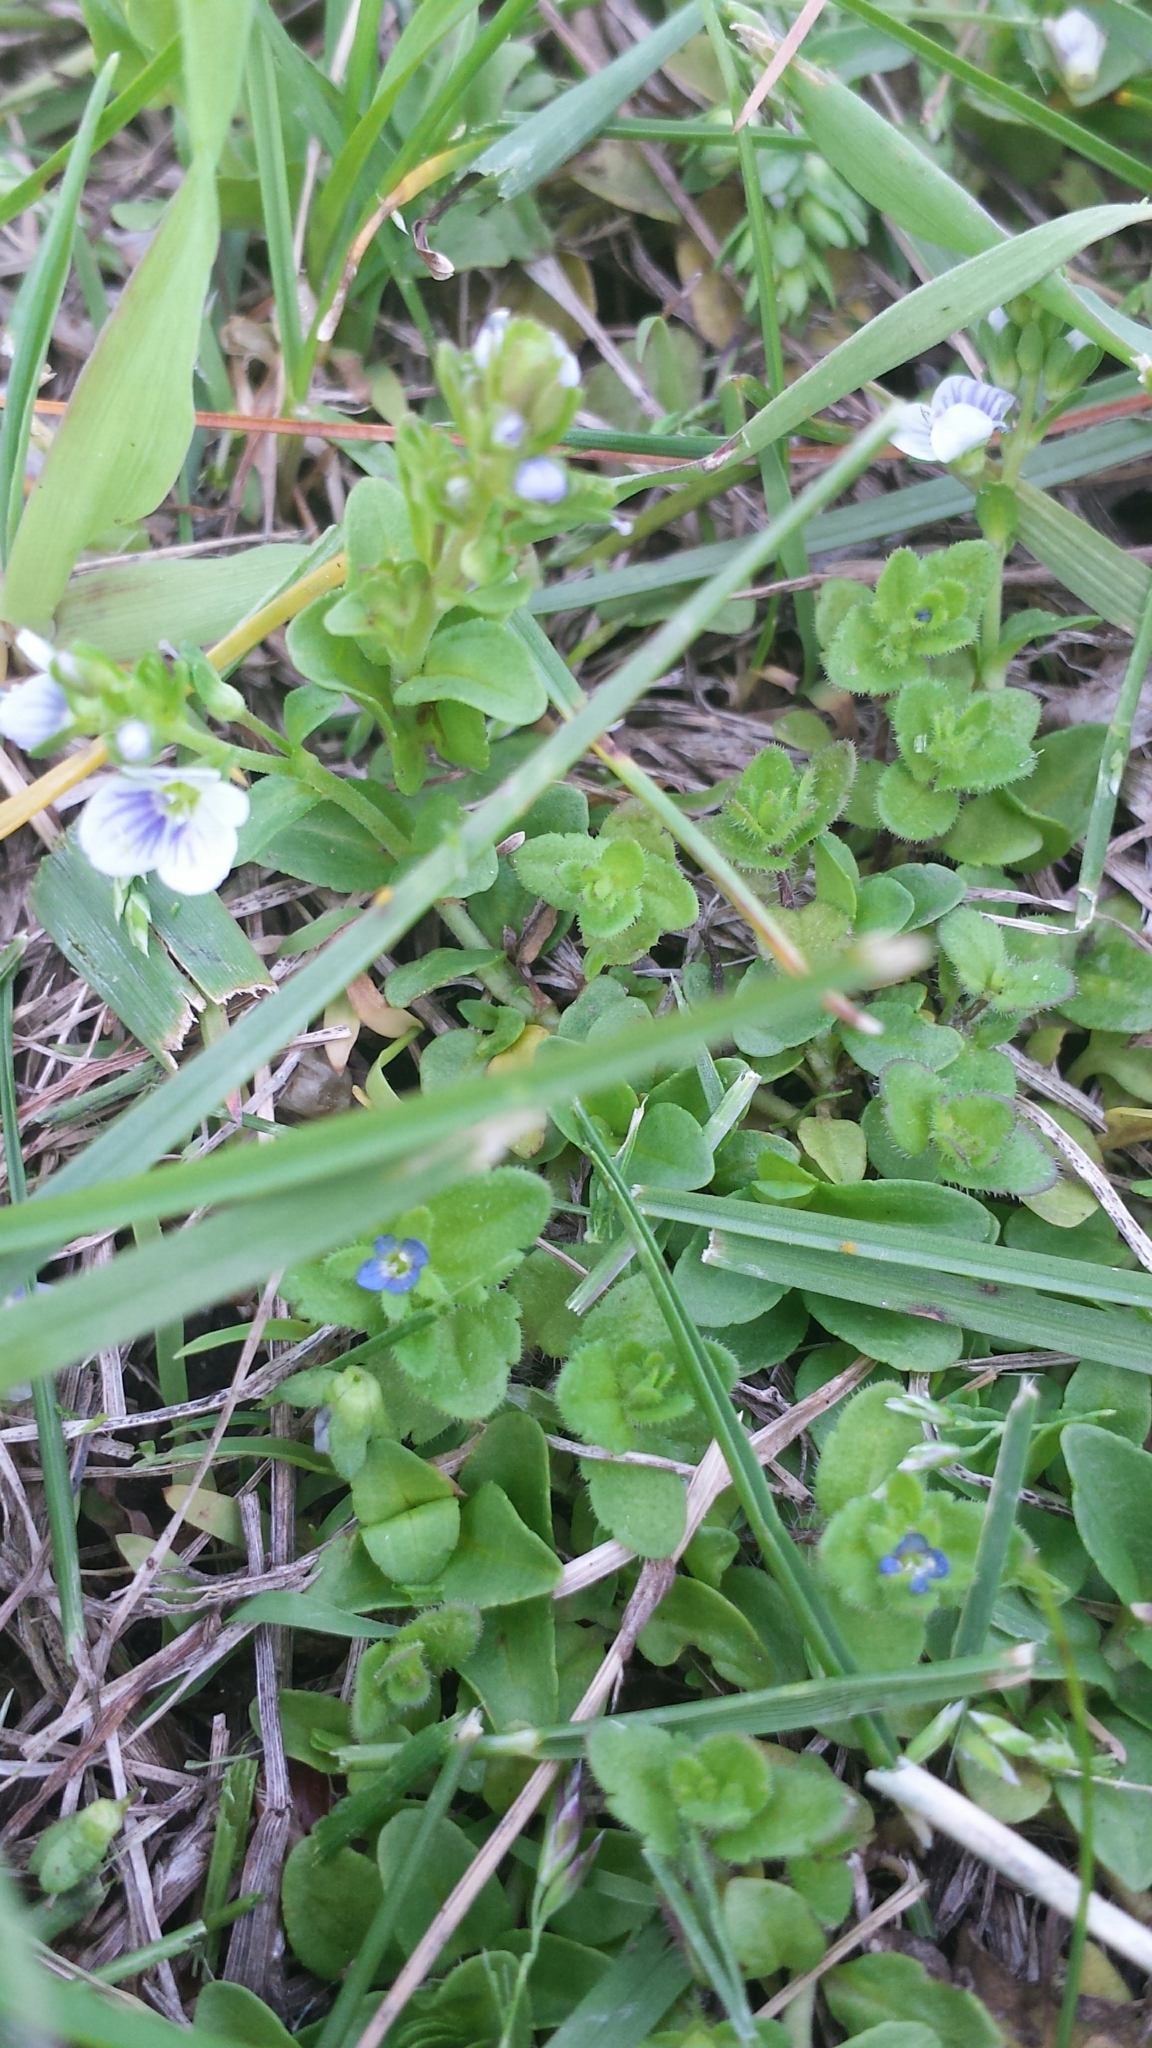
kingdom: Plantae
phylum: Tracheophyta
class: Magnoliopsida
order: Lamiales
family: Plantaginaceae
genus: Veronica
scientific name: Veronica serpyllifolia
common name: Thyme-leaved speedwell
